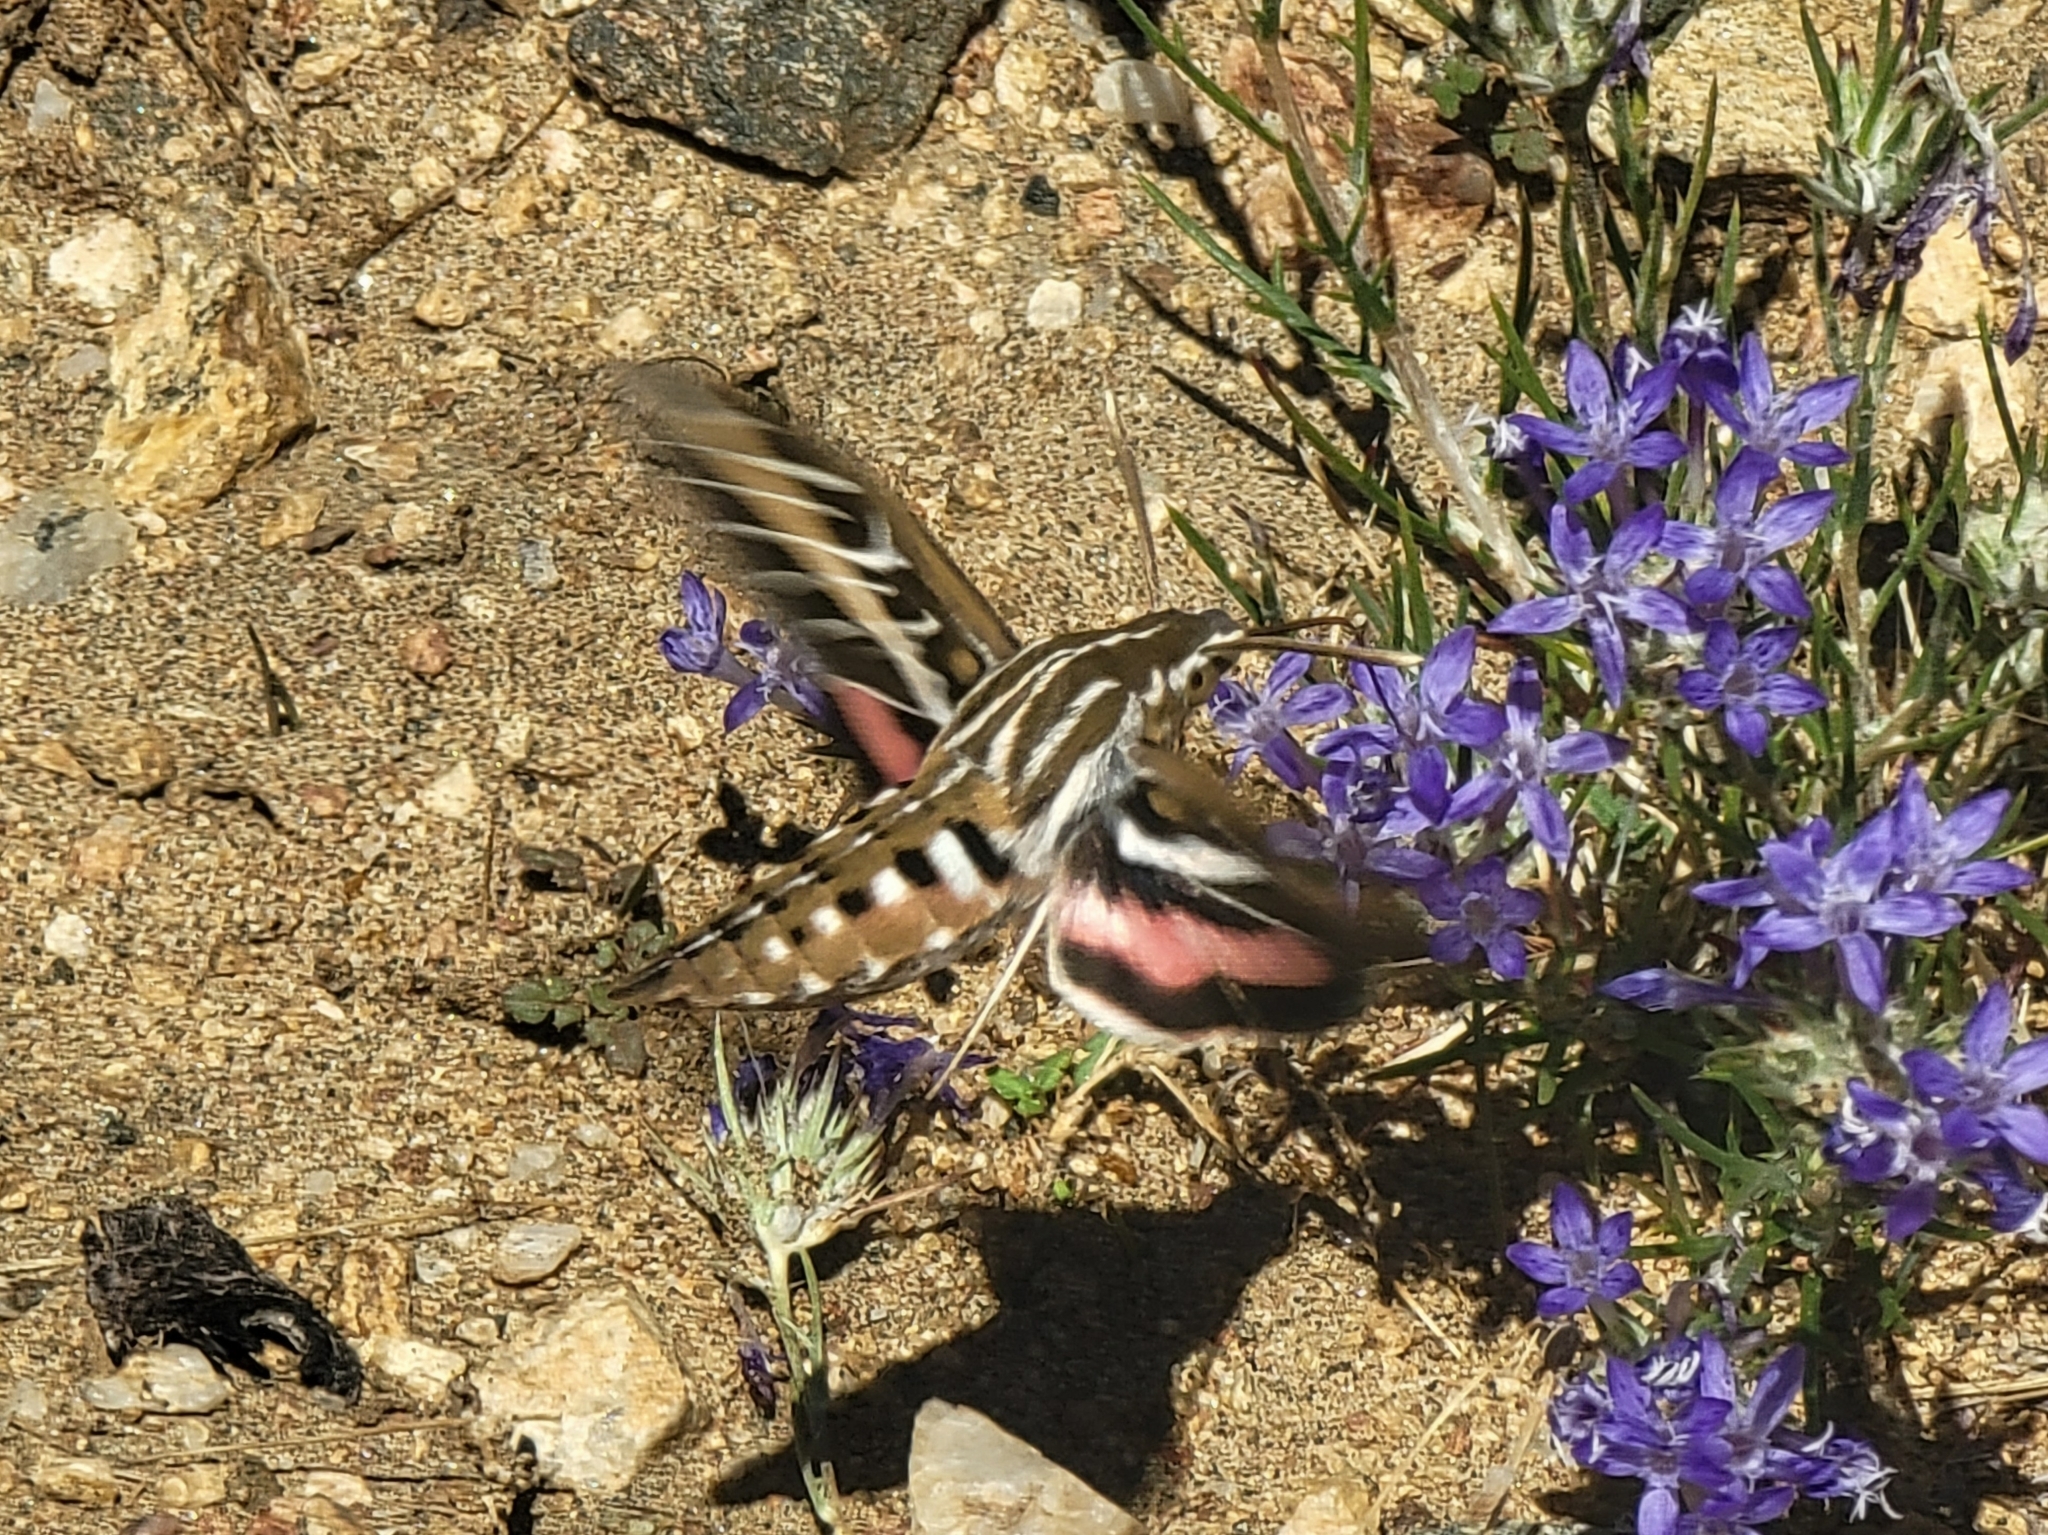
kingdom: Animalia
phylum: Arthropoda
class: Insecta
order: Lepidoptera
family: Sphingidae
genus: Hyles
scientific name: Hyles lineata
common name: White-lined sphinx
